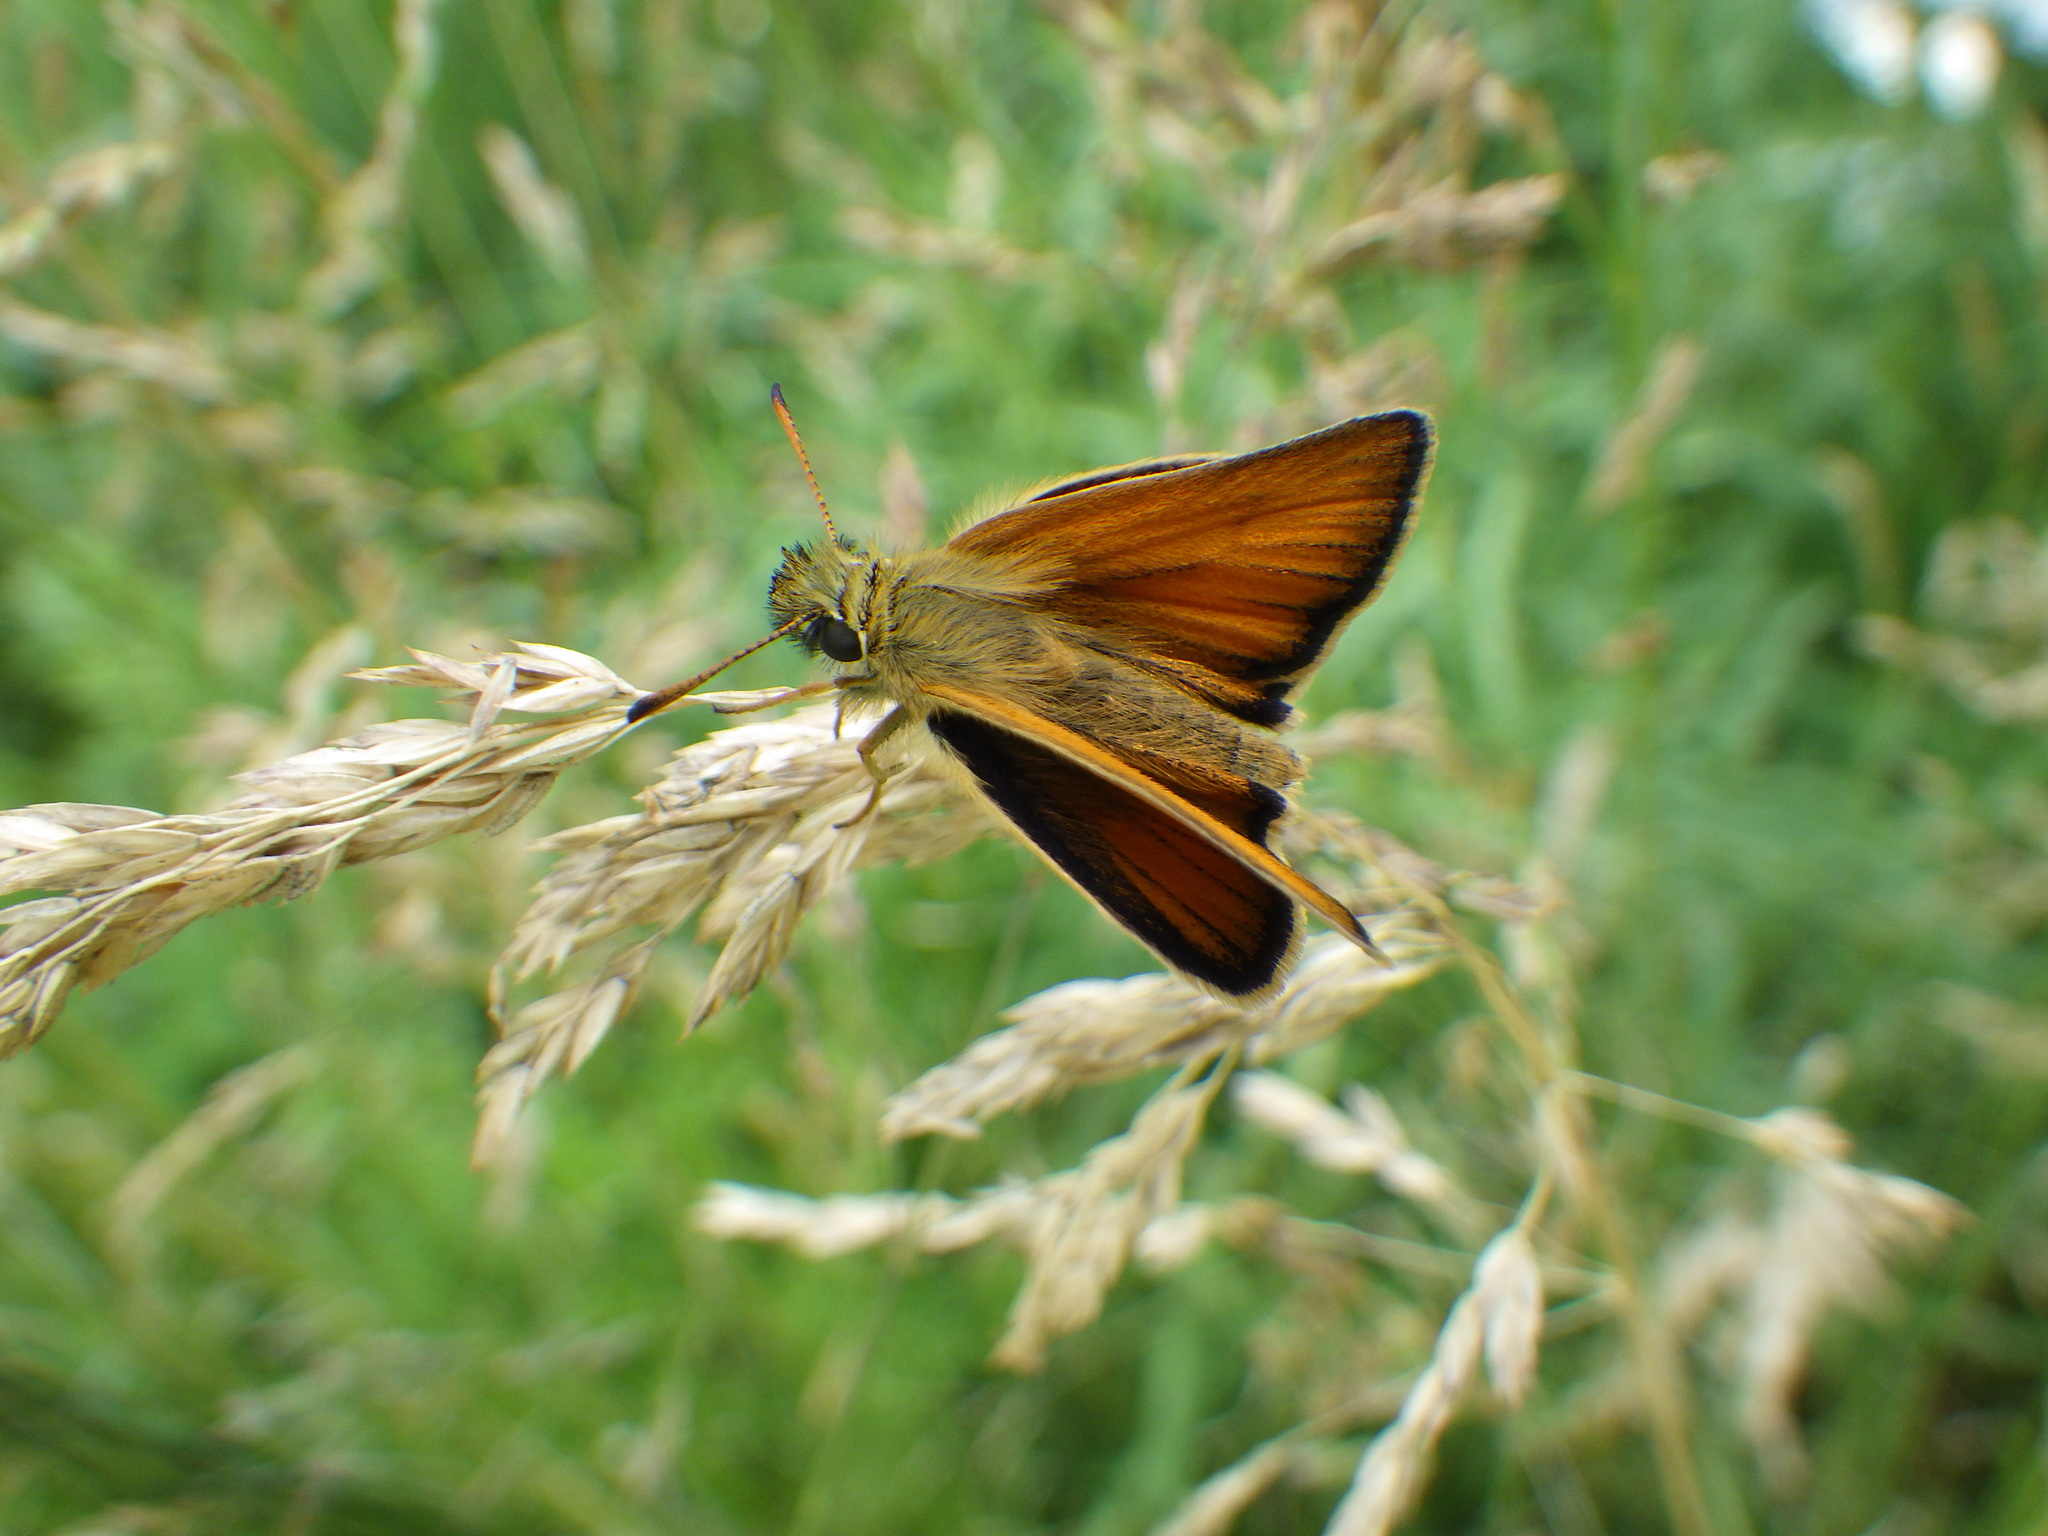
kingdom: Animalia
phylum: Arthropoda
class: Insecta
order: Lepidoptera
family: Hesperiidae
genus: Thymelicus
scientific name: Thymelicus lineola
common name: Essex skipper
